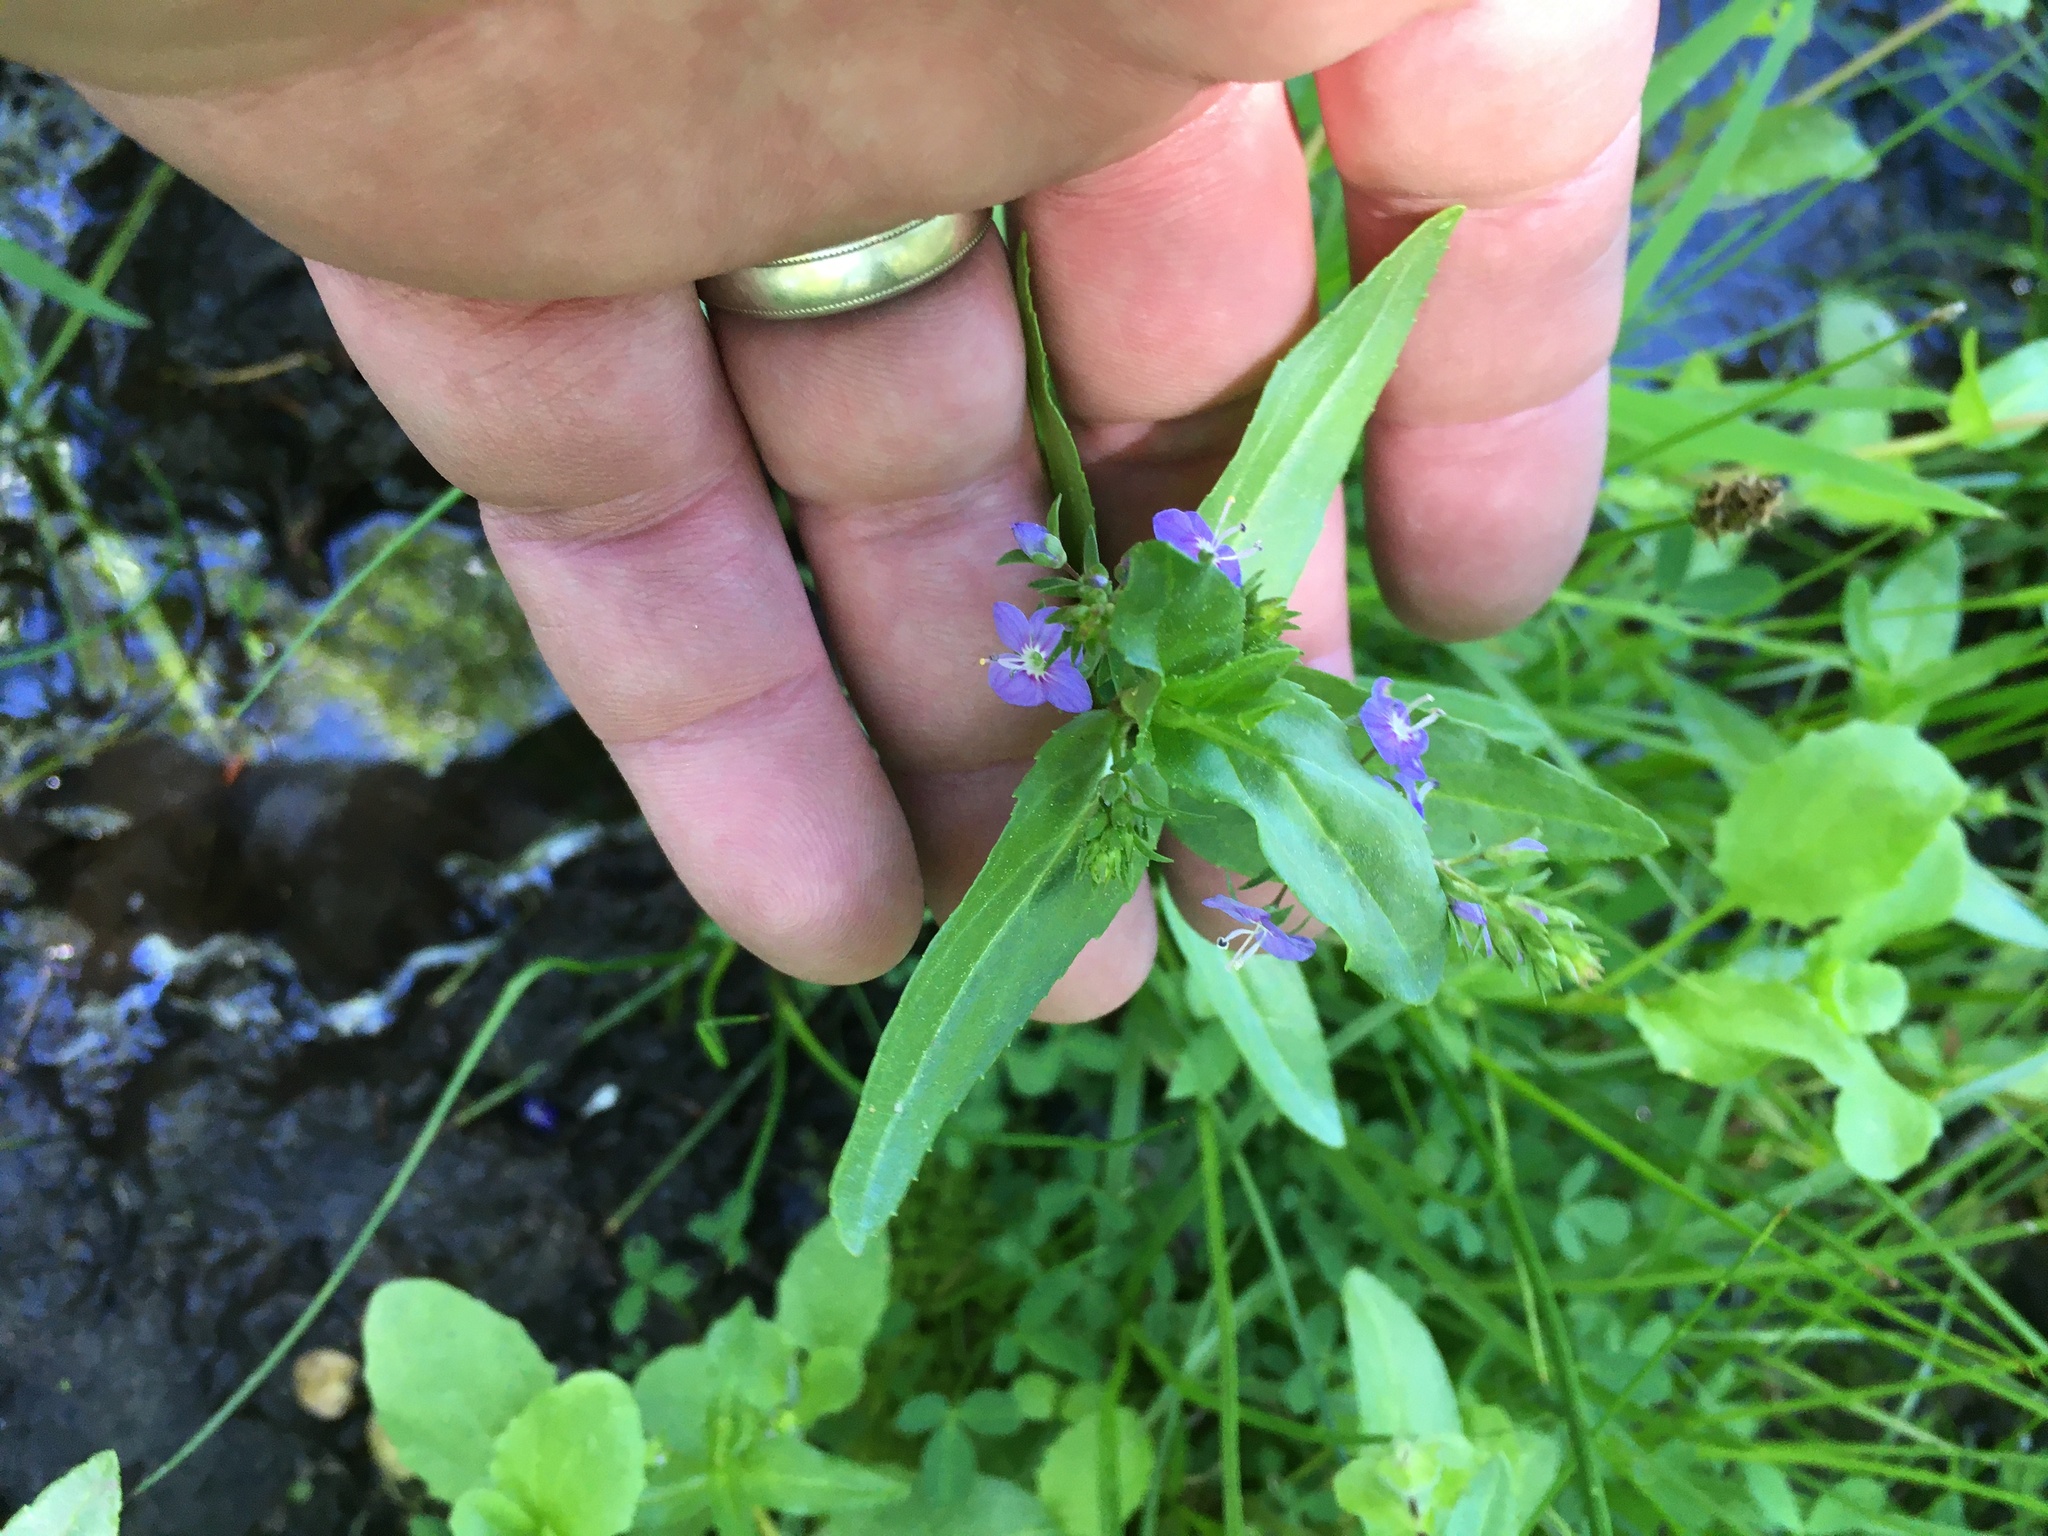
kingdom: Plantae
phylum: Tracheophyta
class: Magnoliopsida
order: Lamiales
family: Plantaginaceae
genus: Veronica
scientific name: Veronica americana
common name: American brooklime
